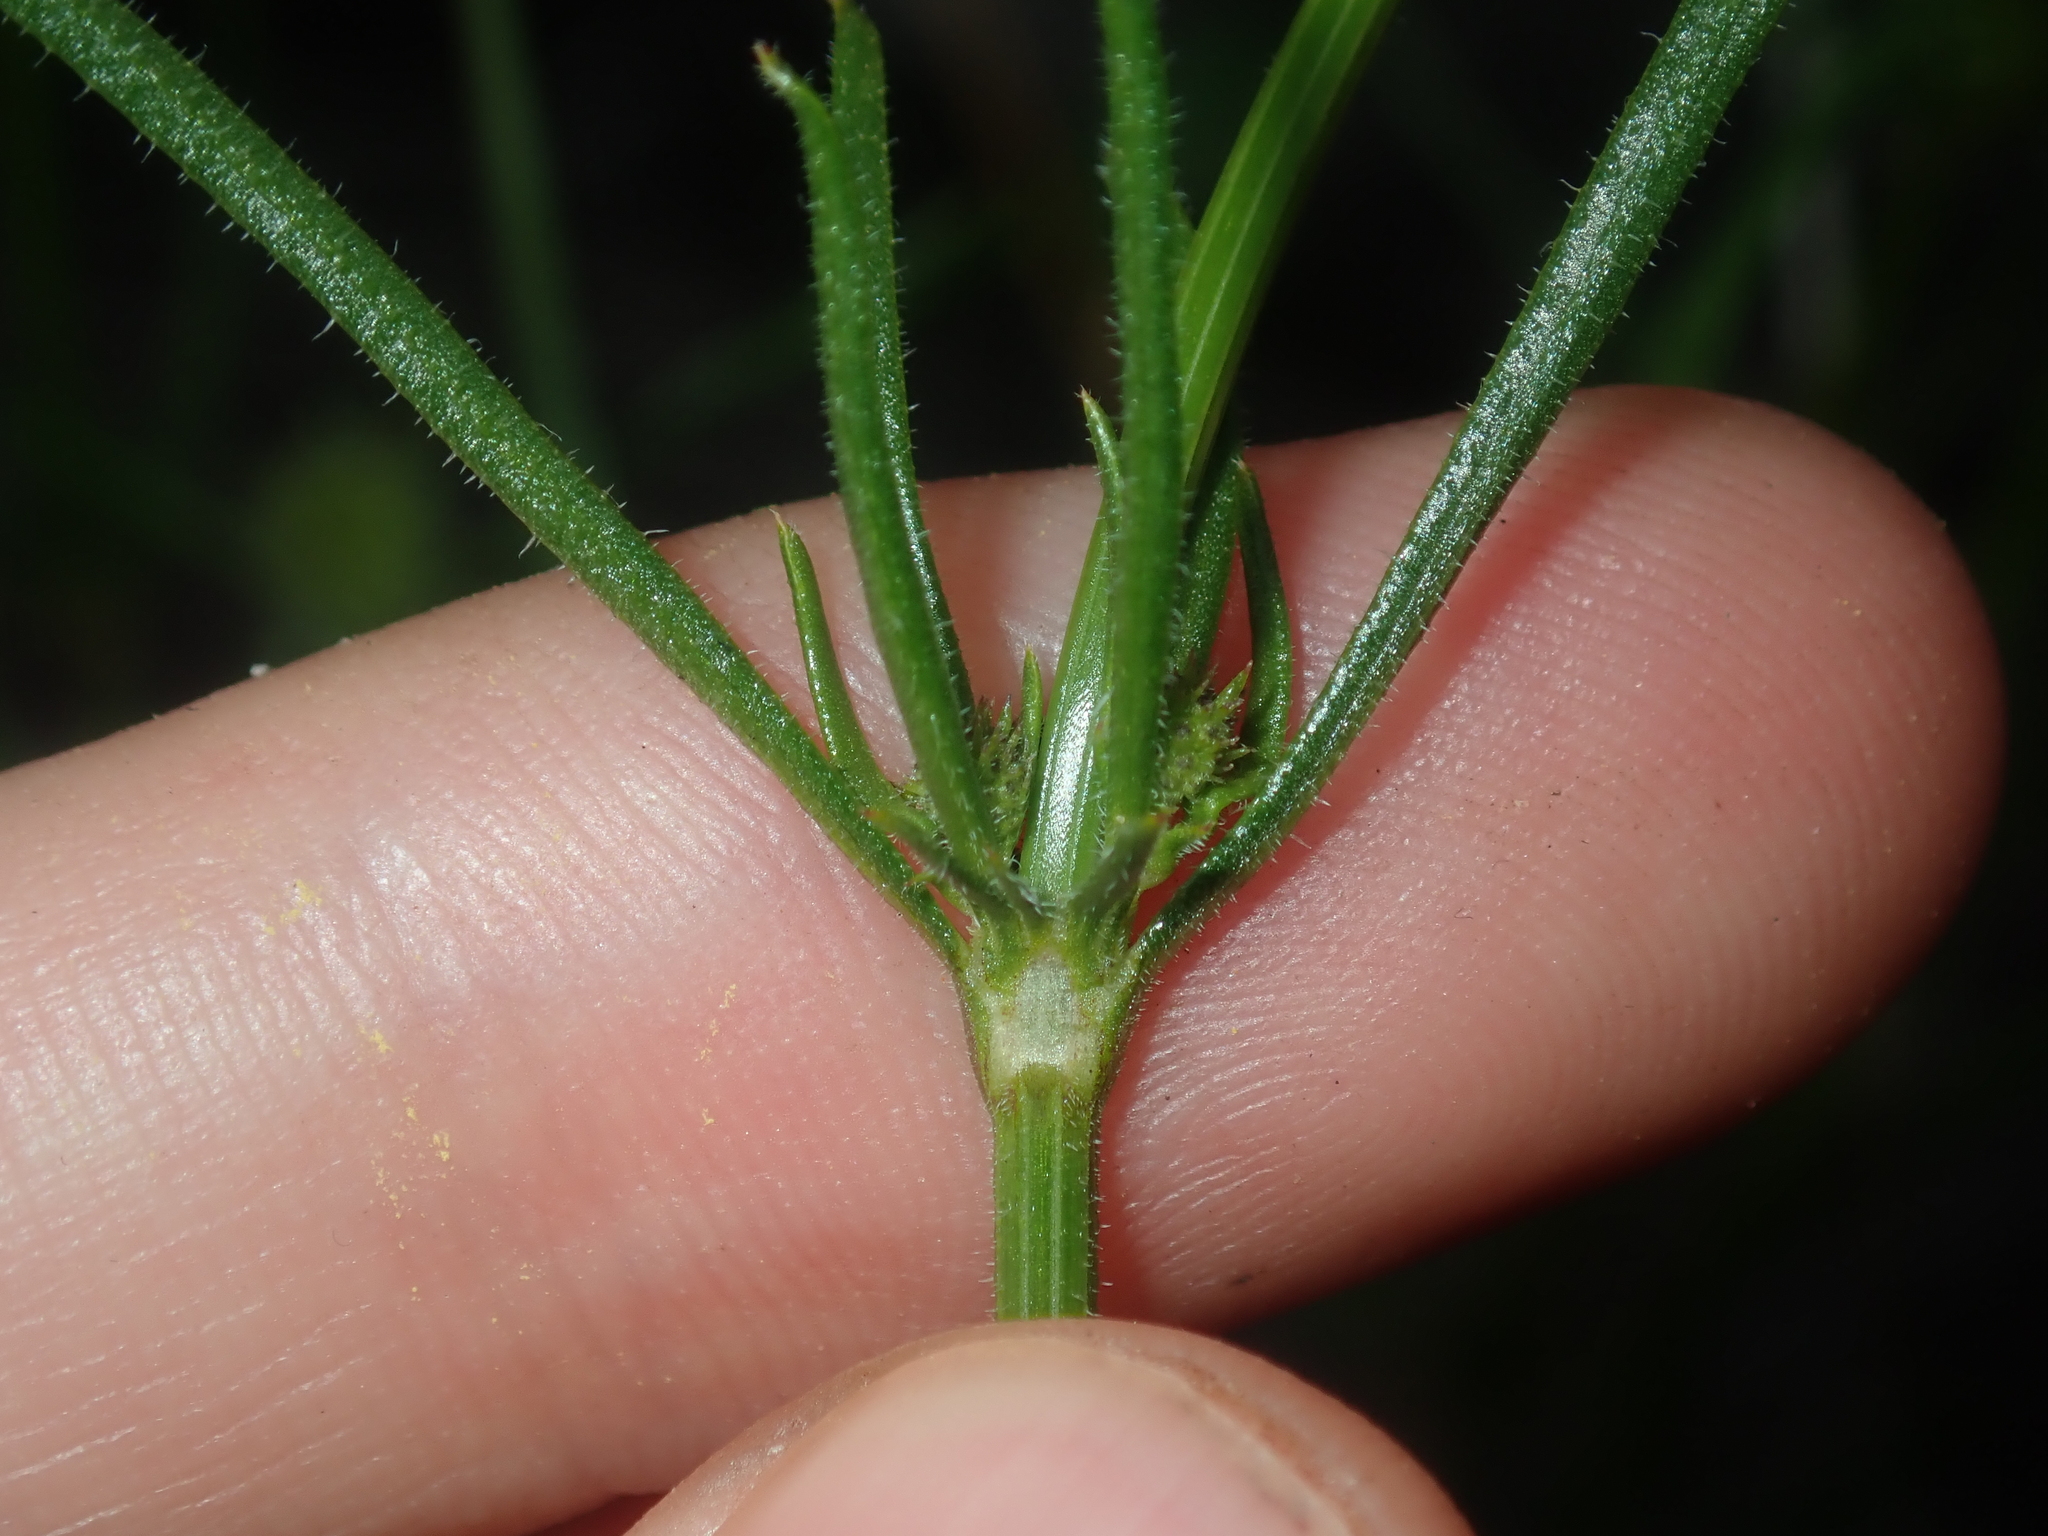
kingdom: Plantae
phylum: Tracheophyta
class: Magnoliopsida
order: Gentianales
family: Rubiaceae
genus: Opercularia
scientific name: Opercularia vaginata
